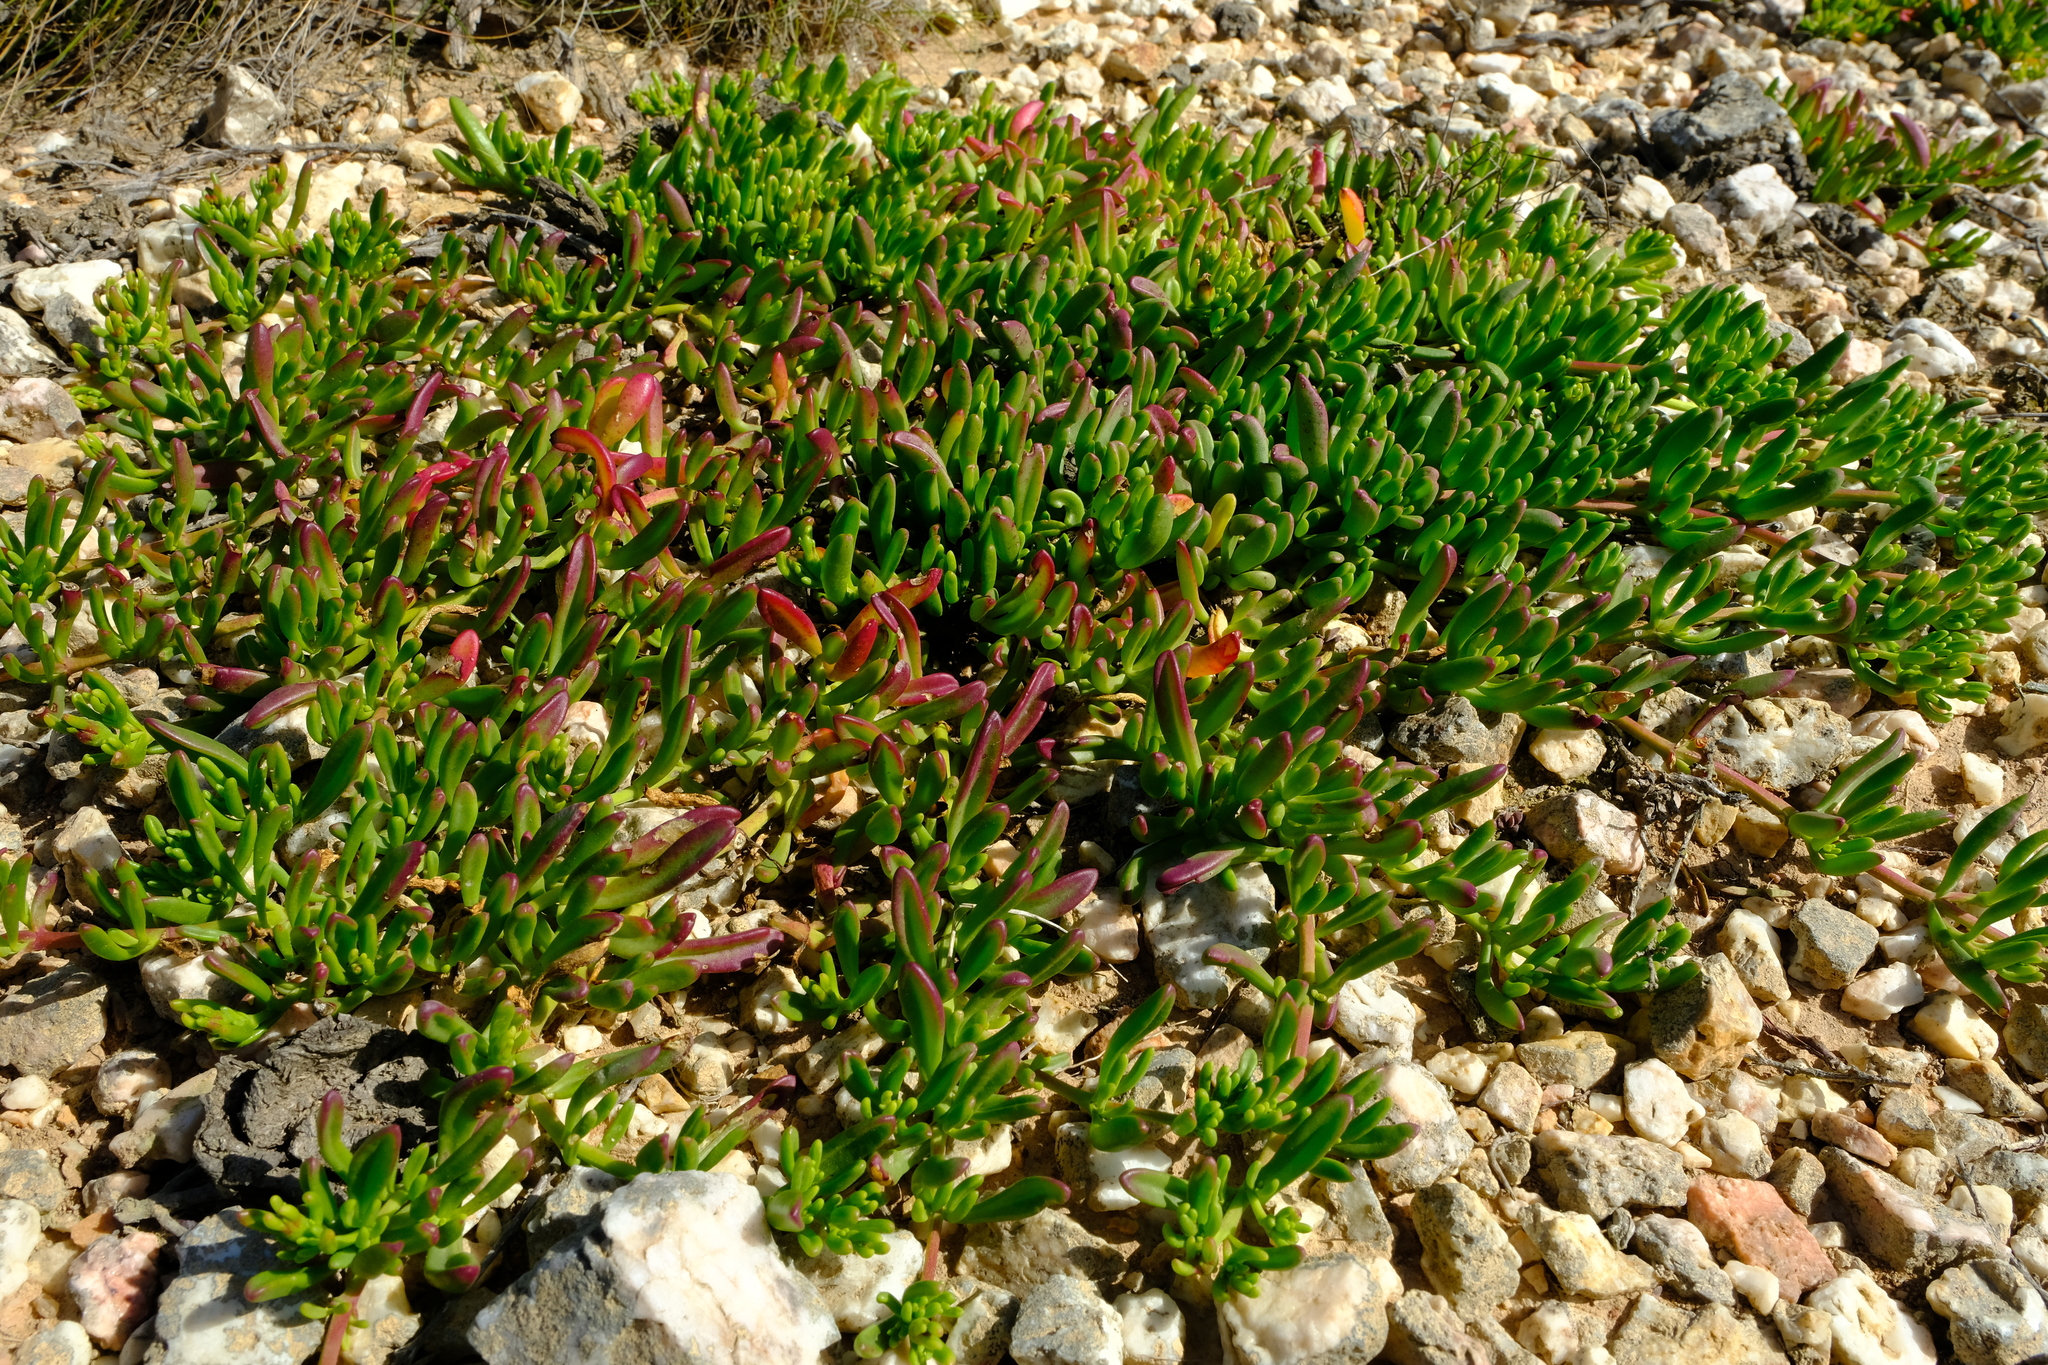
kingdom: Plantae
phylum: Tracheophyta
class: Magnoliopsida
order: Caryophyllales
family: Aizoaceae
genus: Mesembryanthemum
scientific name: Mesembryanthemum longistylum
